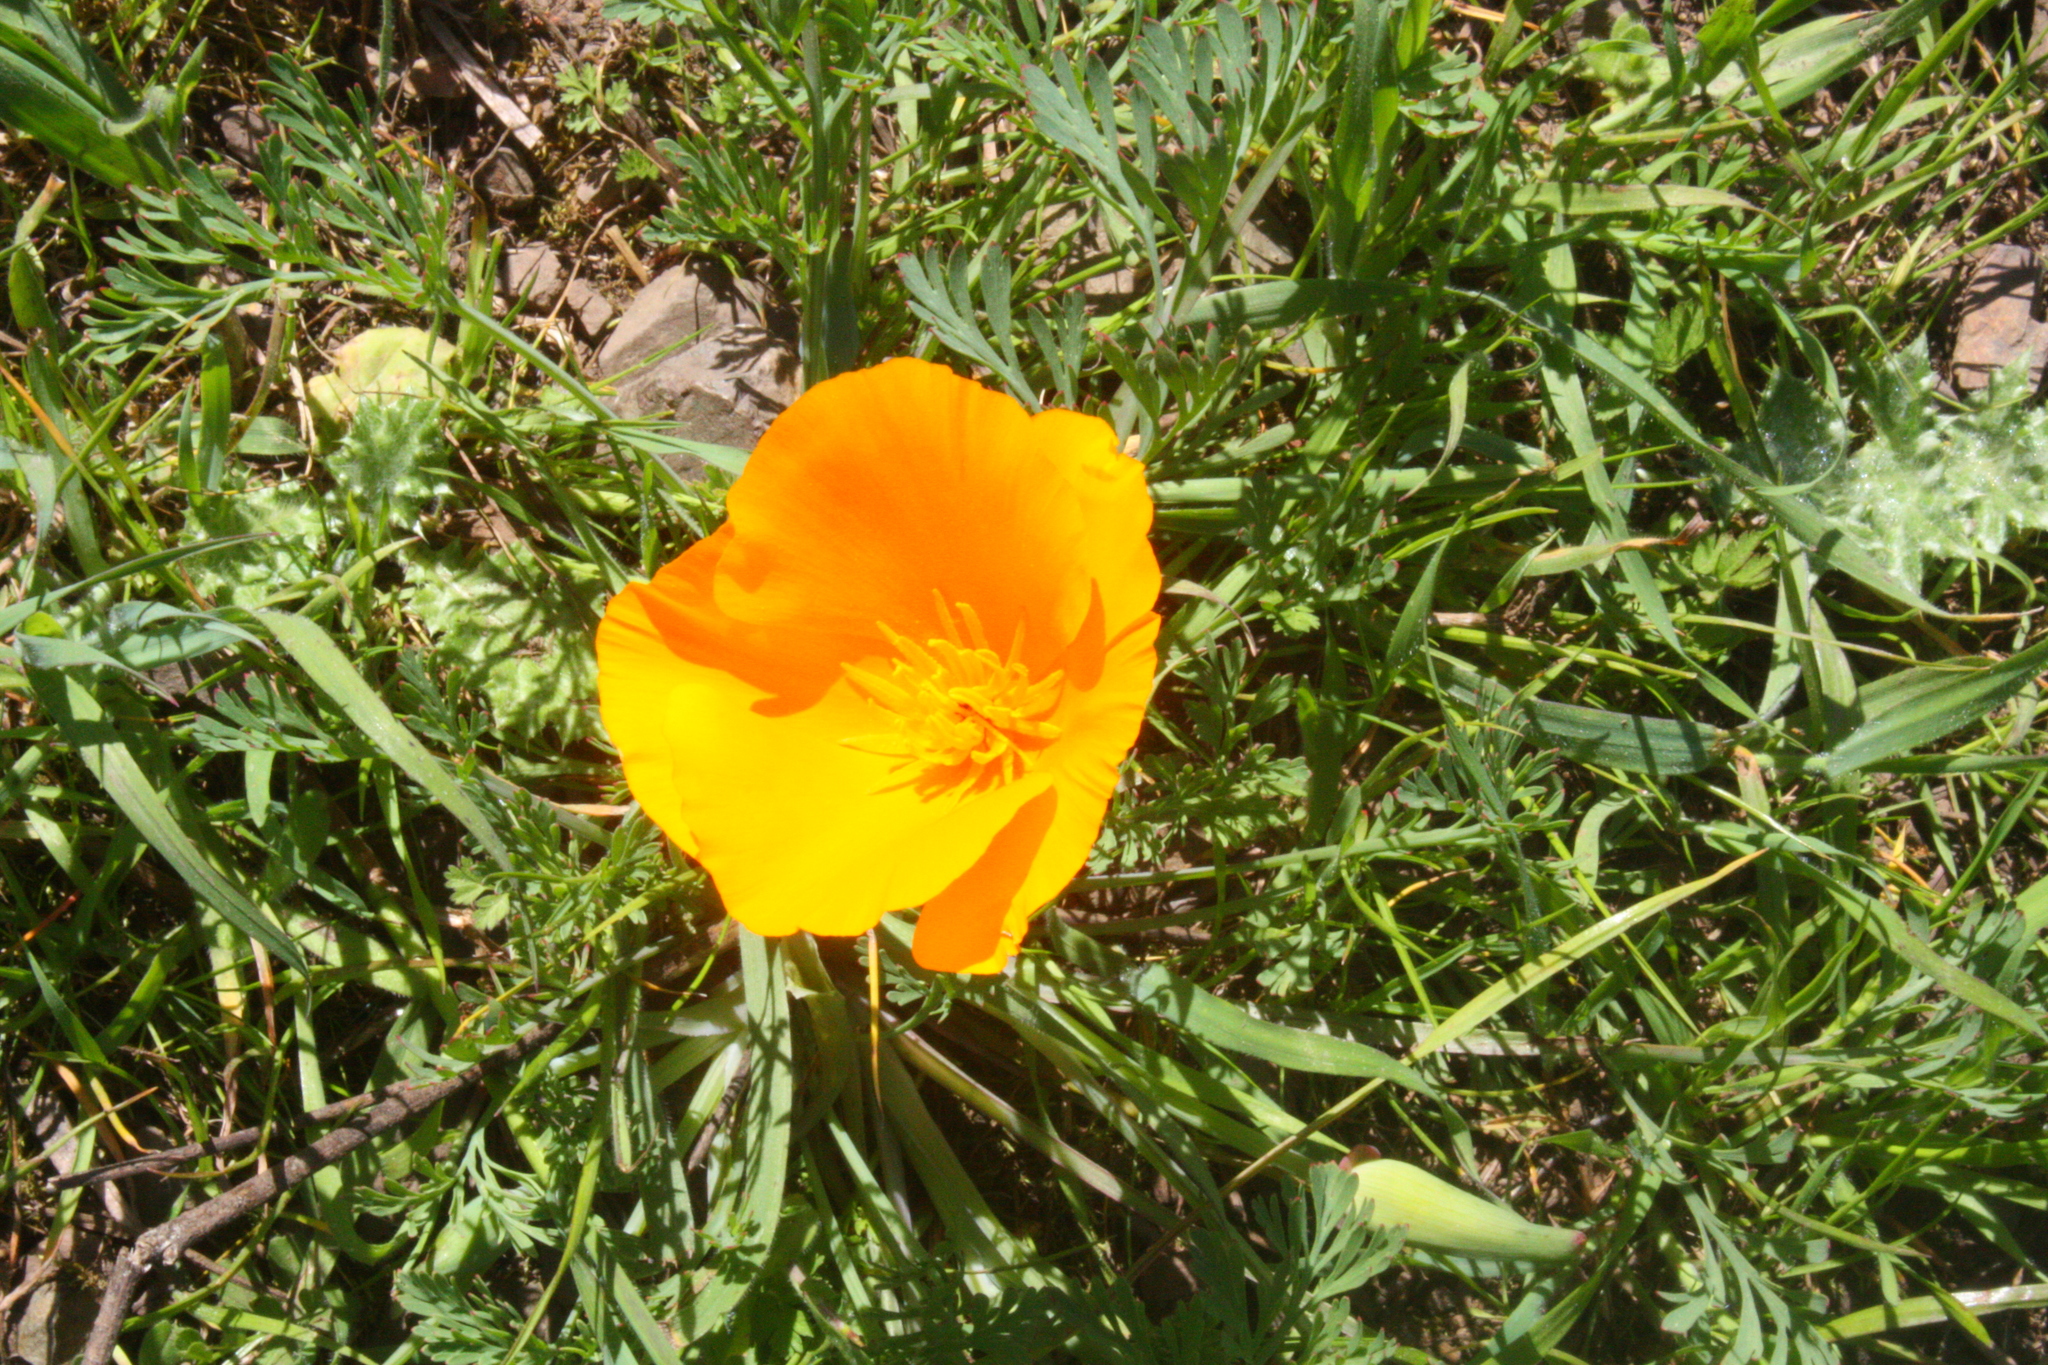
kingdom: Plantae
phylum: Tracheophyta
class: Magnoliopsida
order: Ranunculales
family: Papaveraceae
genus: Eschscholzia
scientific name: Eschscholzia californica
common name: California poppy
